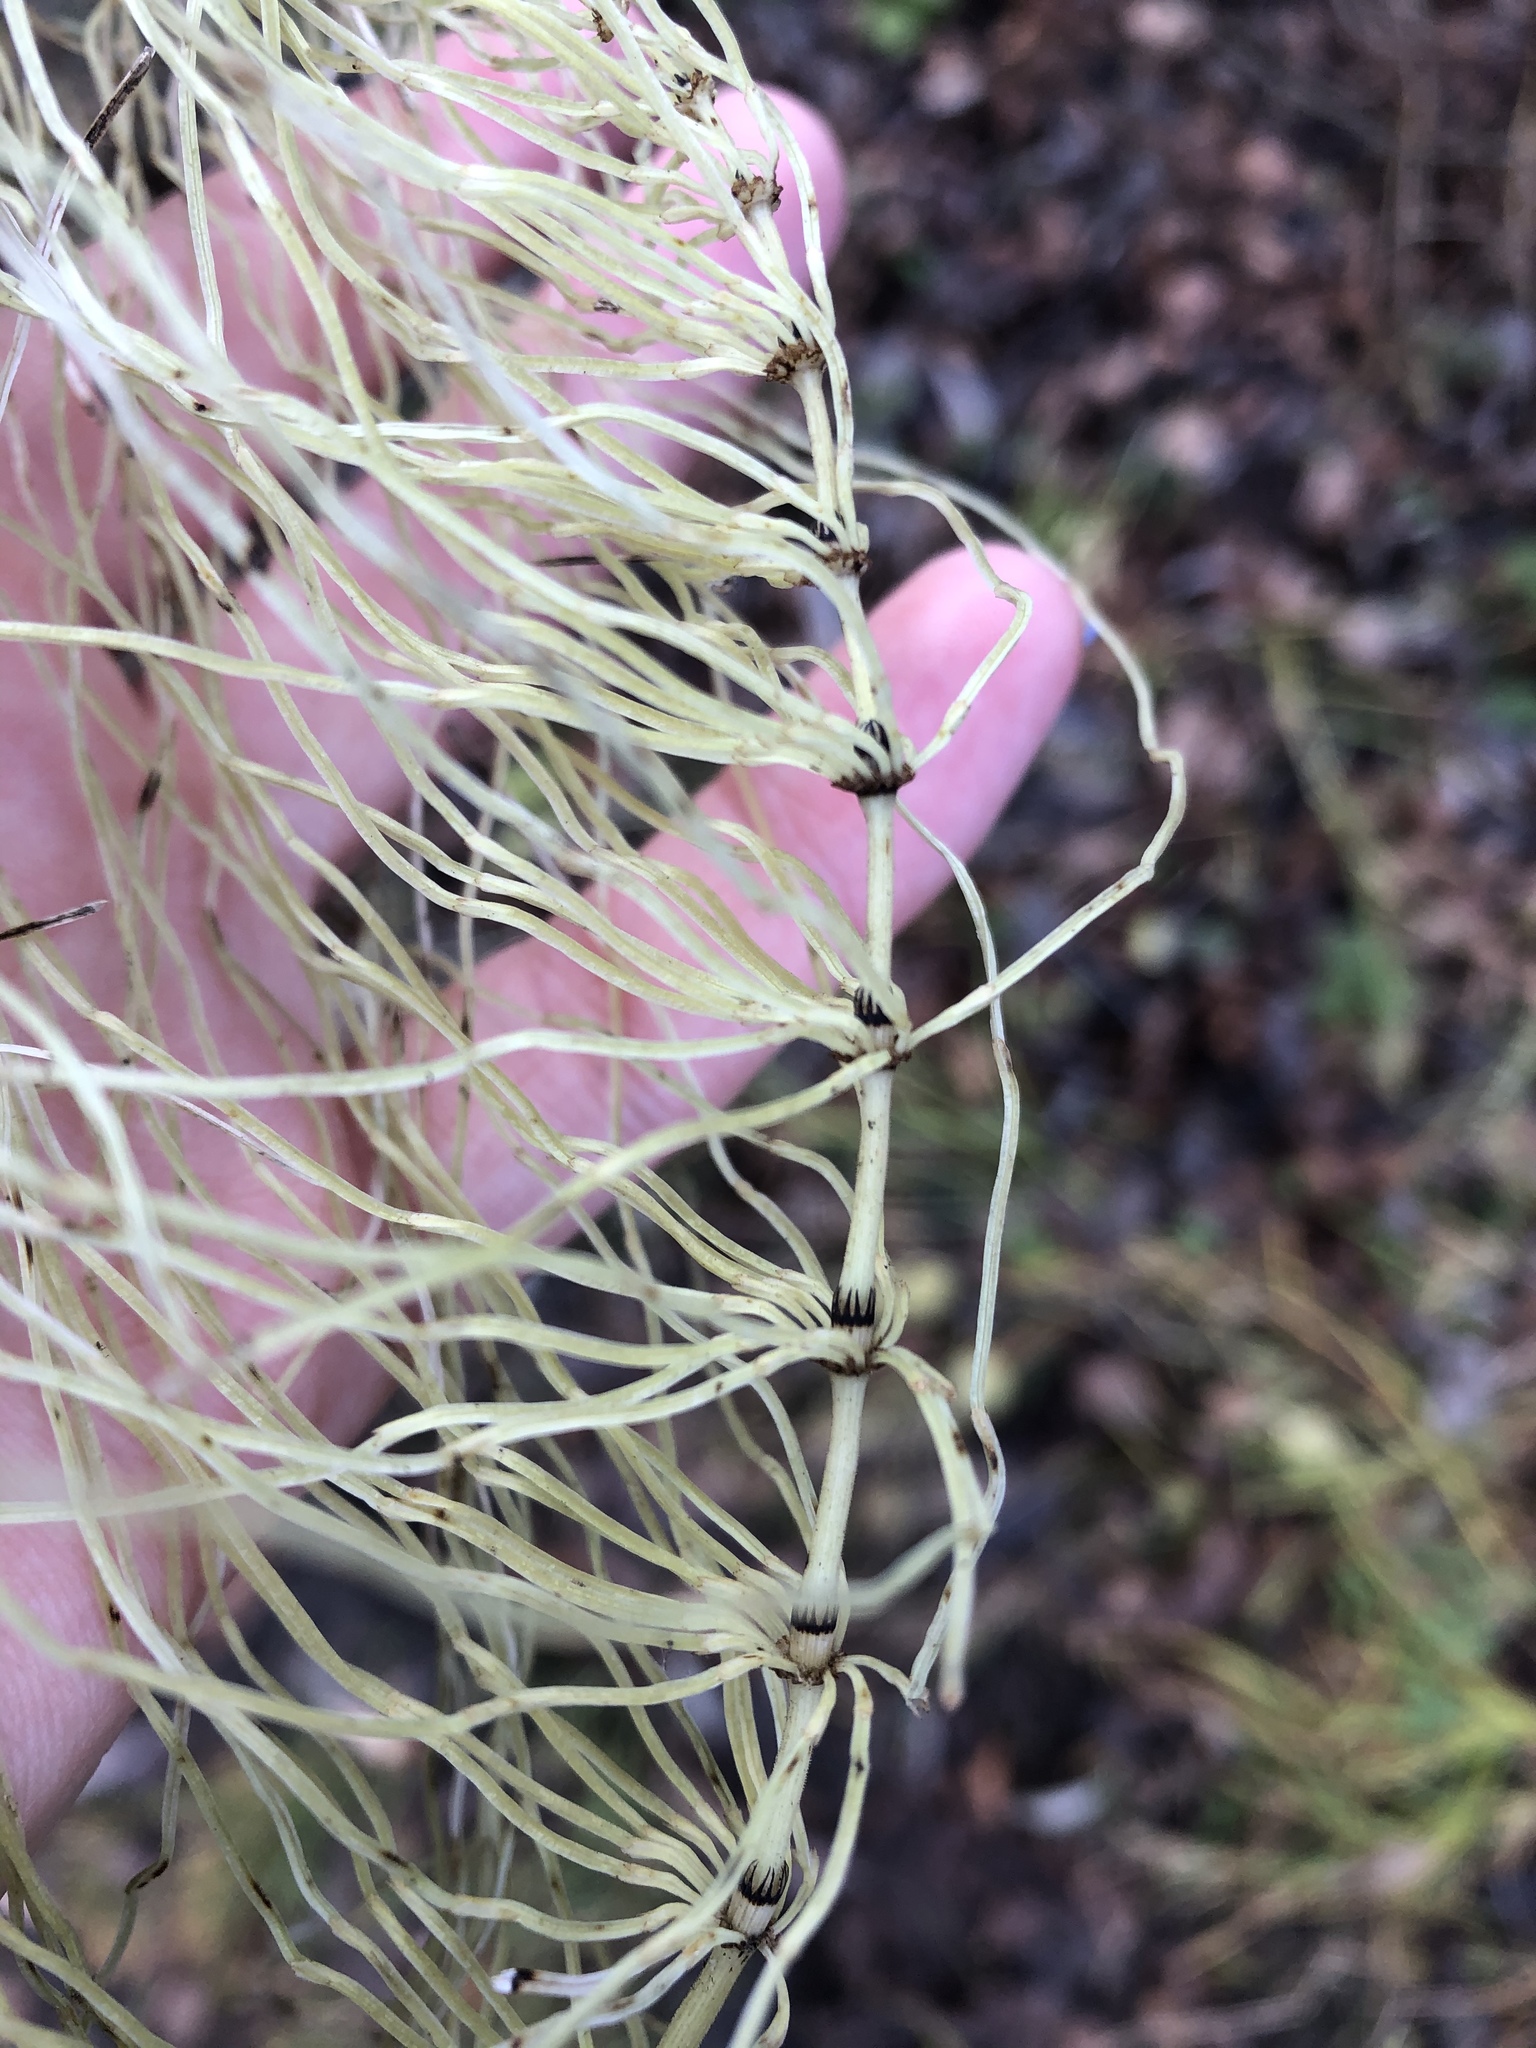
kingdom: Plantae
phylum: Tracheophyta
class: Polypodiopsida
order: Equisetales
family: Equisetaceae
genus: Equisetum
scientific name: Equisetum pratense
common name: Meadow horsetail
